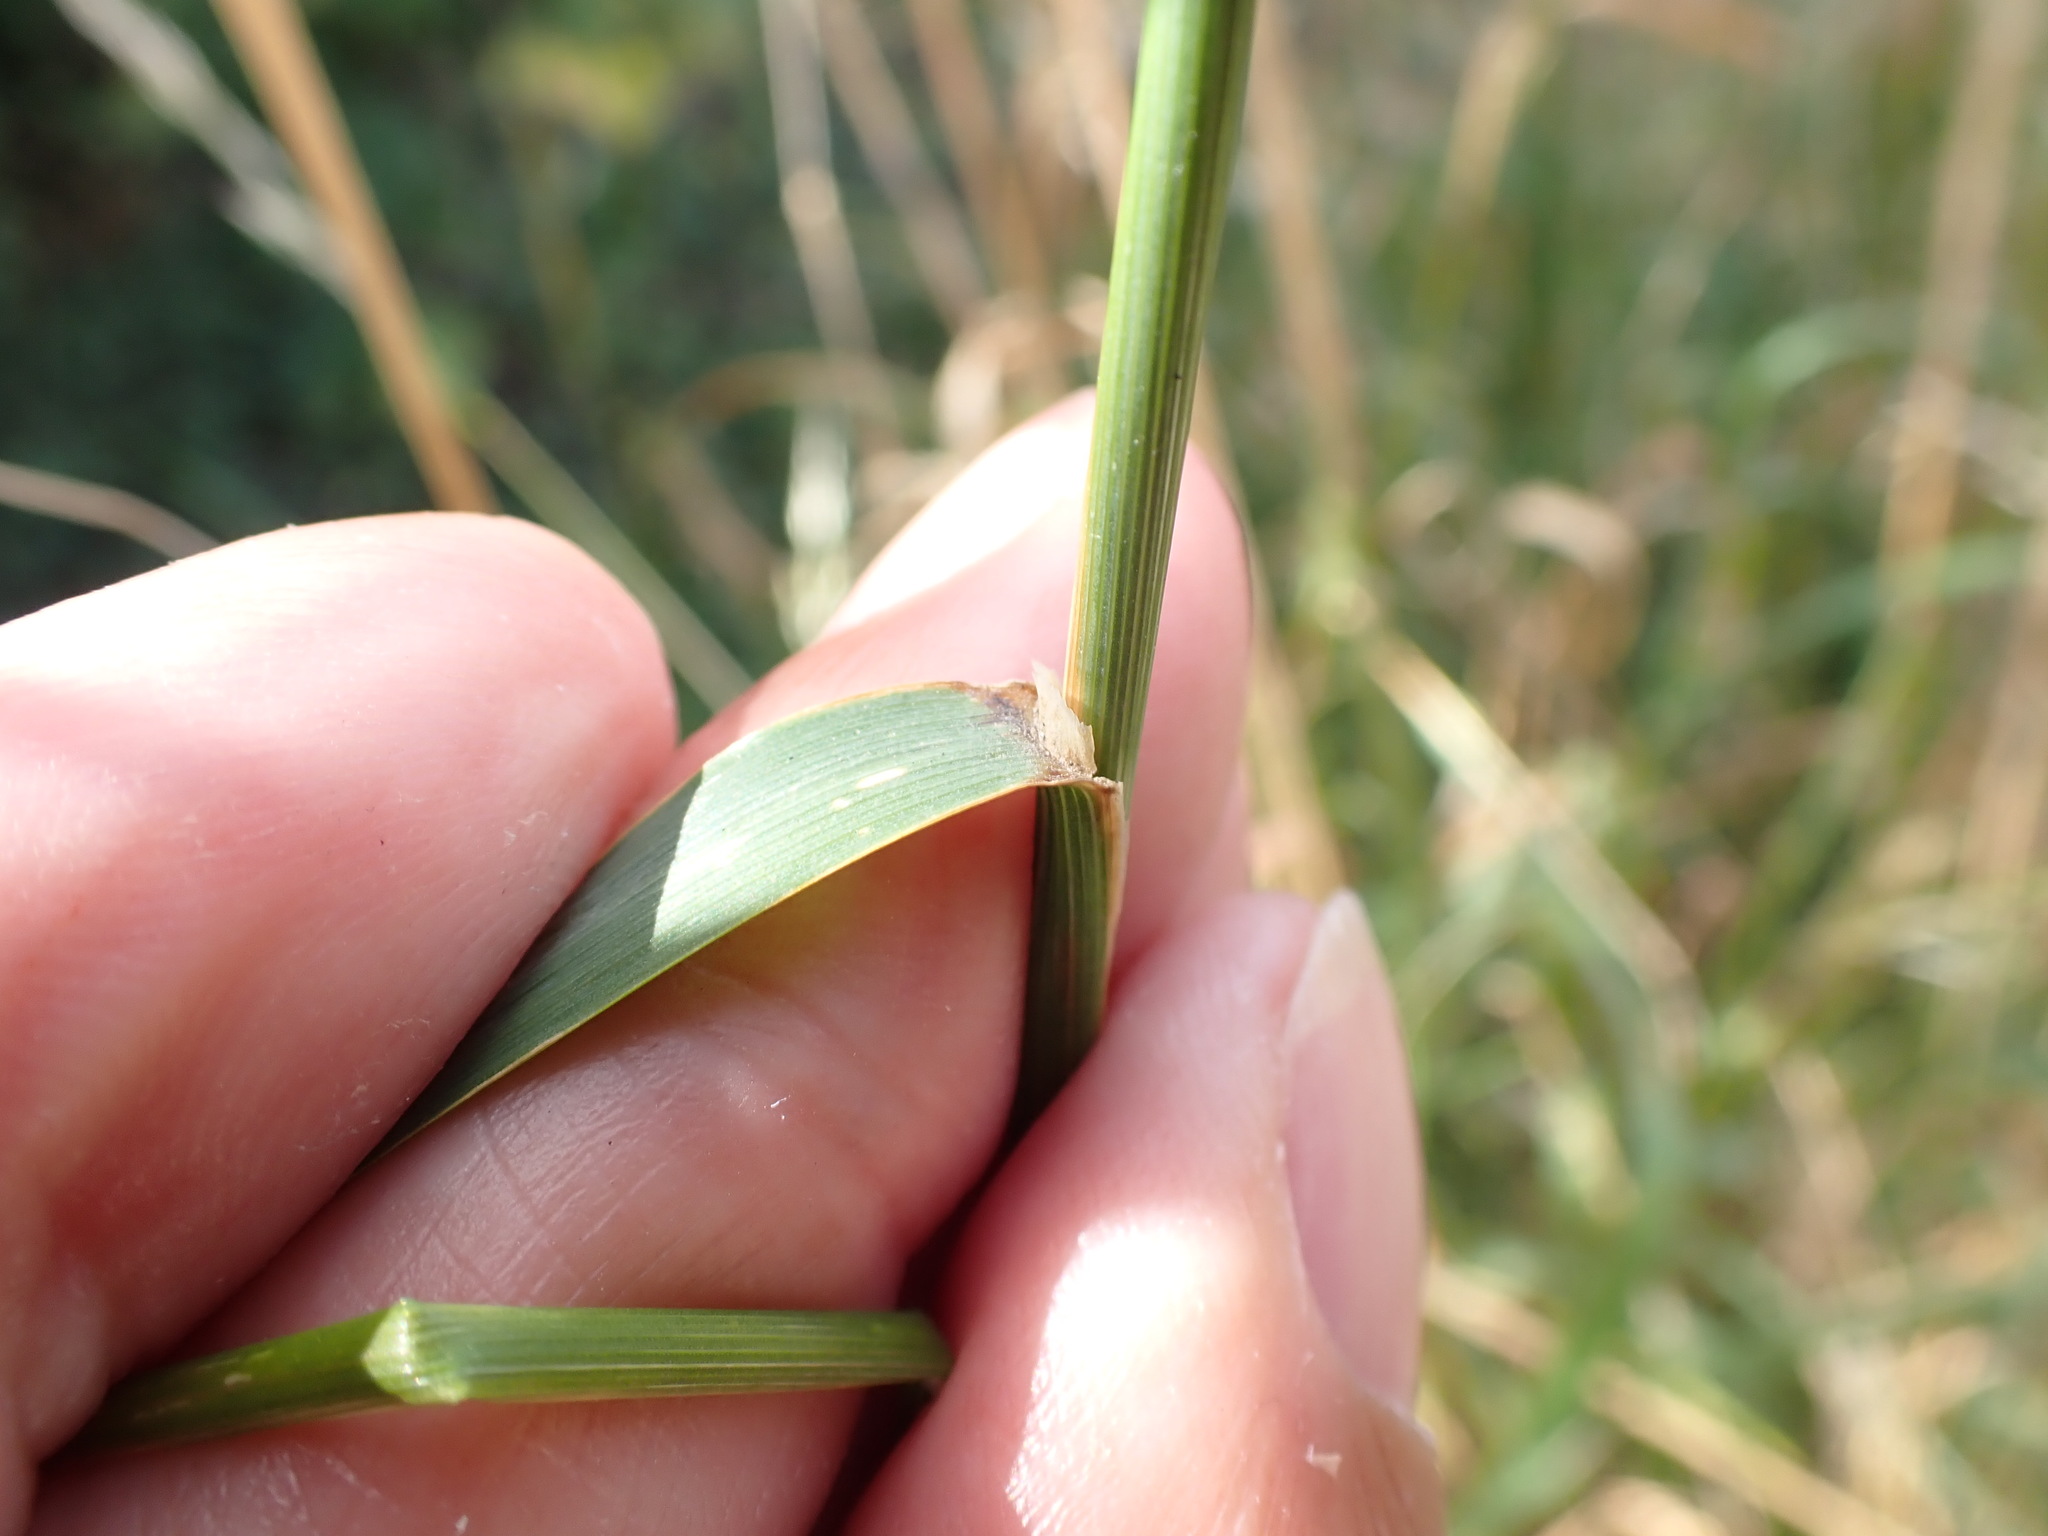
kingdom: Plantae
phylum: Tracheophyta
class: Liliopsida
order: Poales
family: Poaceae
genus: Arrhenatherum
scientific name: Arrhenatherum elatius
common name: Tall oatgrass
